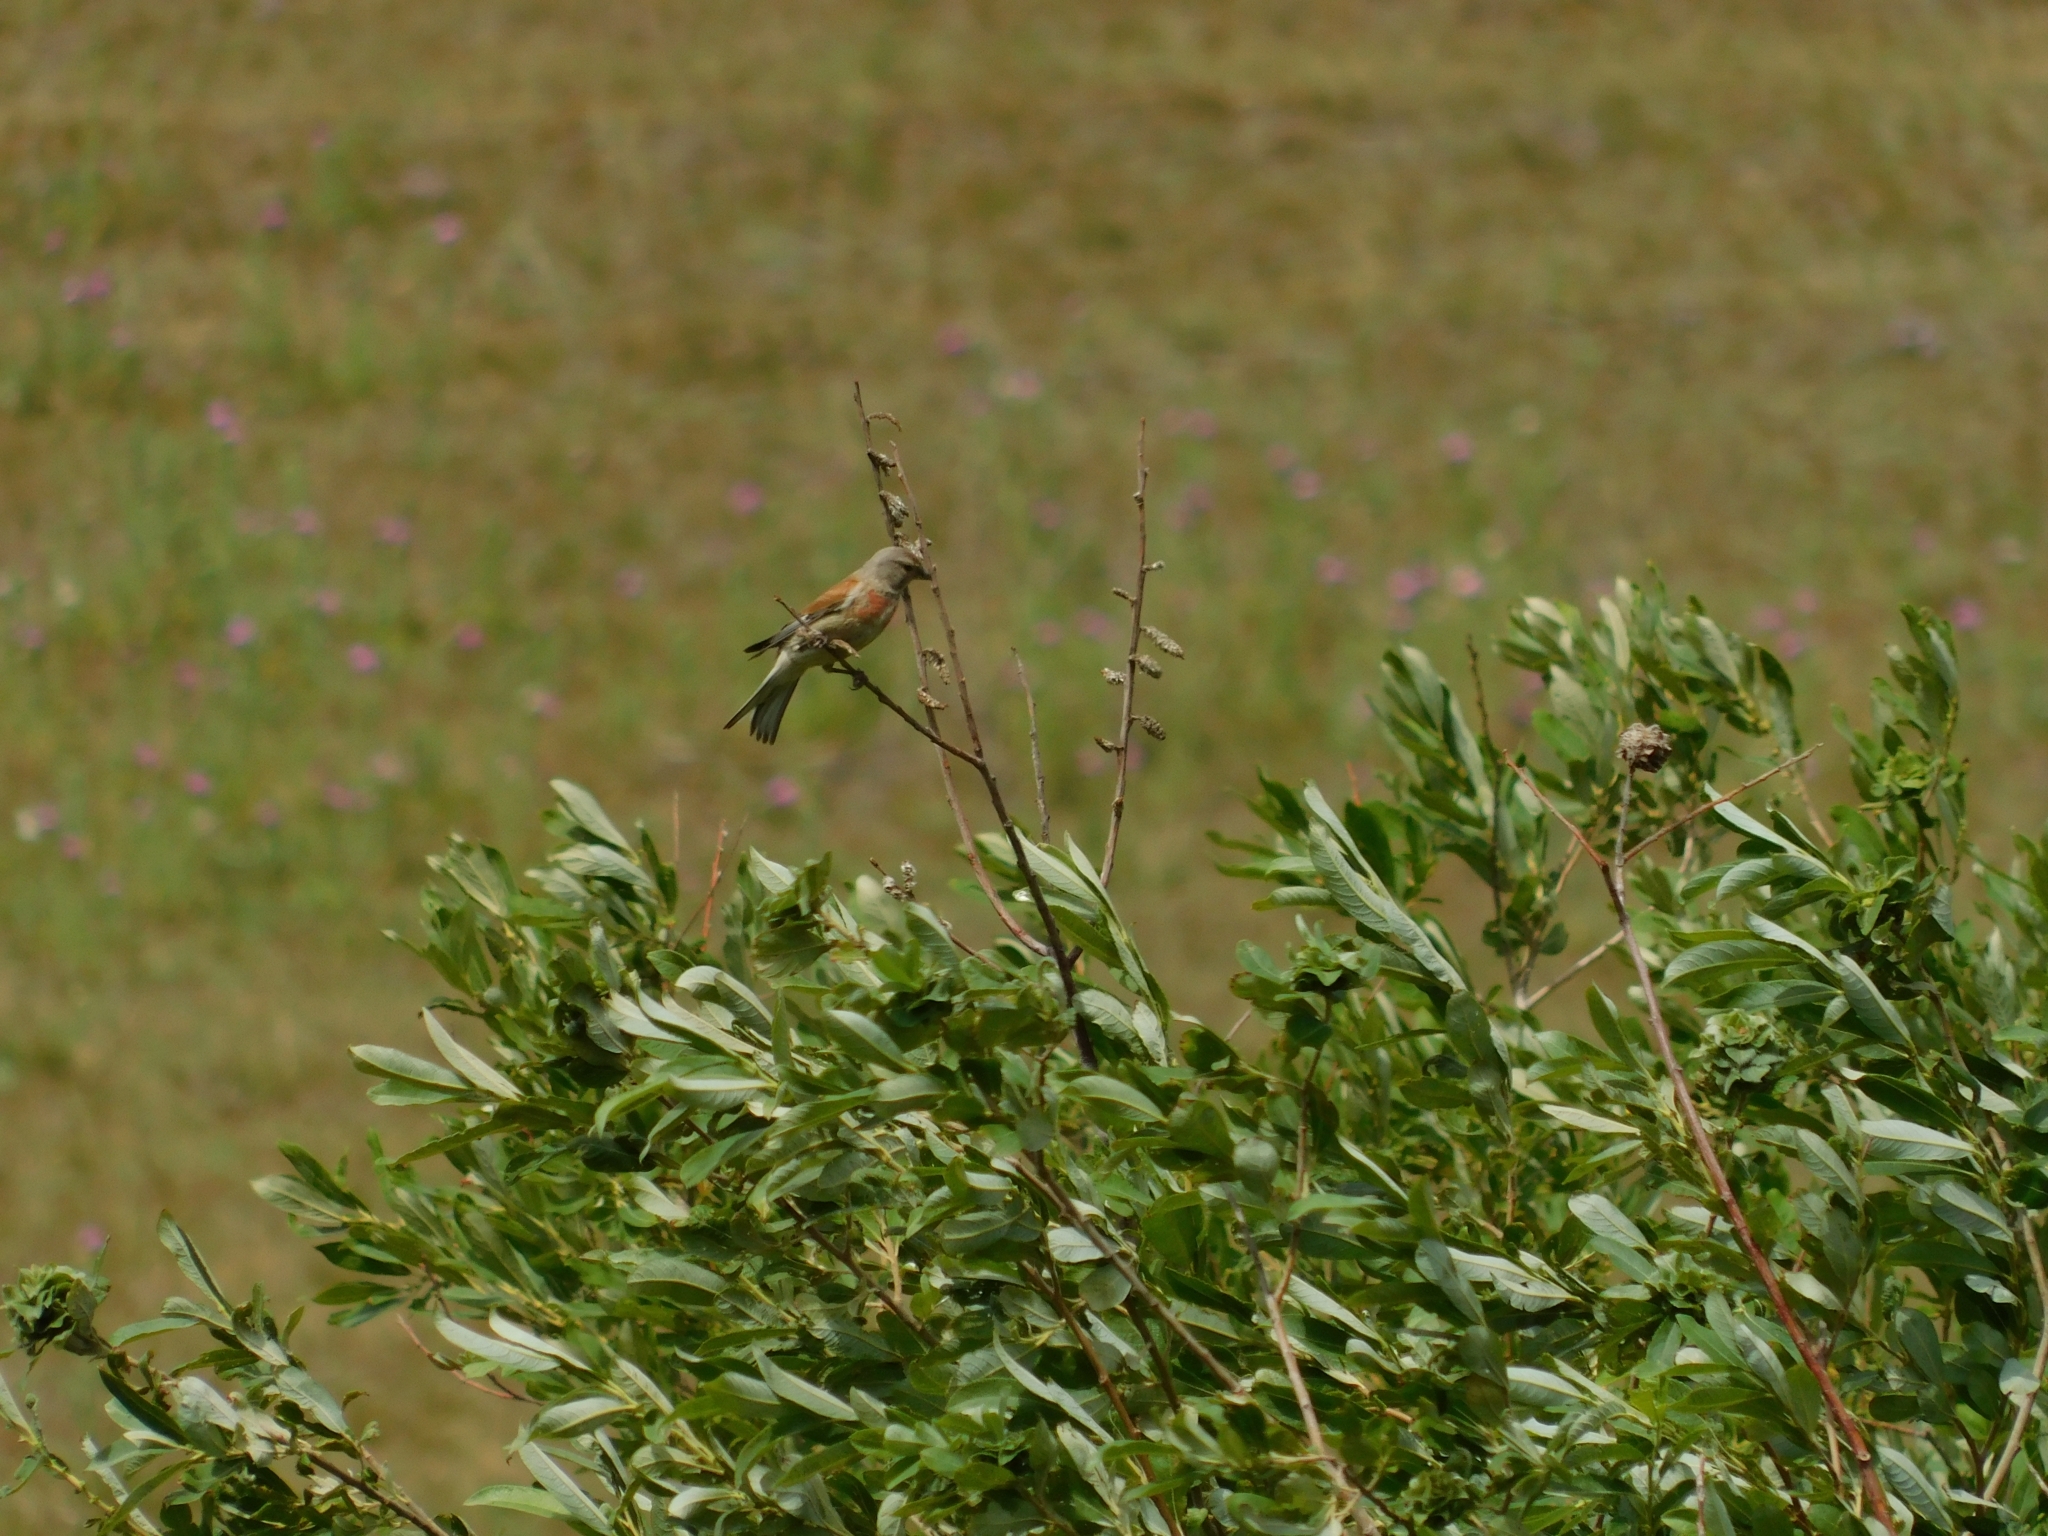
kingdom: Animalia
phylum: Chordata
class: Aves
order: Passeriformes
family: Fringillidae
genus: Linaria
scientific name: Linaria cannabina
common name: Common linnet
